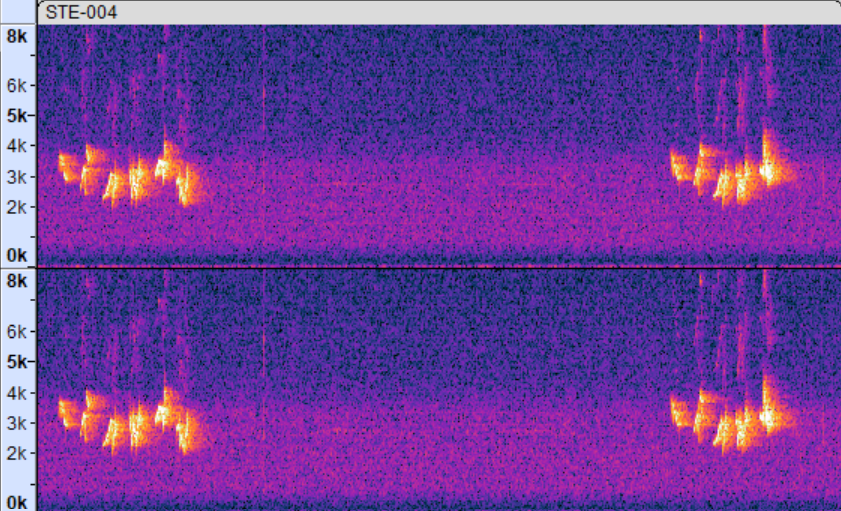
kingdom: Animalia
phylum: Chordata
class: Aves
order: Passeriformes
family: Cardinalidae
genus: Piranga
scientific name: Piranga olivacea
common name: Scarlet tanager
